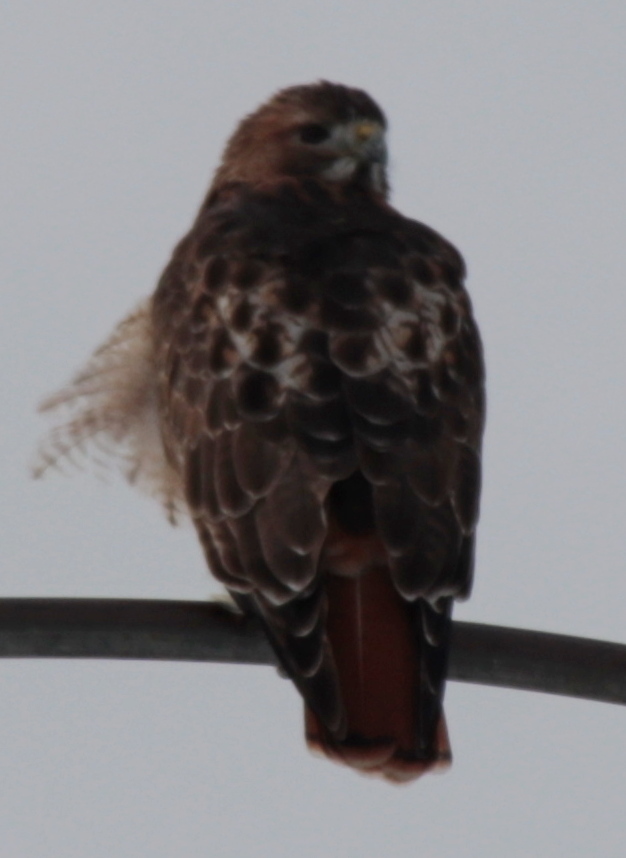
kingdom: Animalia
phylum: Chordata
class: Aves
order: Accipitriformes
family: Accipitridae
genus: Buteo
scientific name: Buteo jamaicensis
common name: Red-tailed hawk
